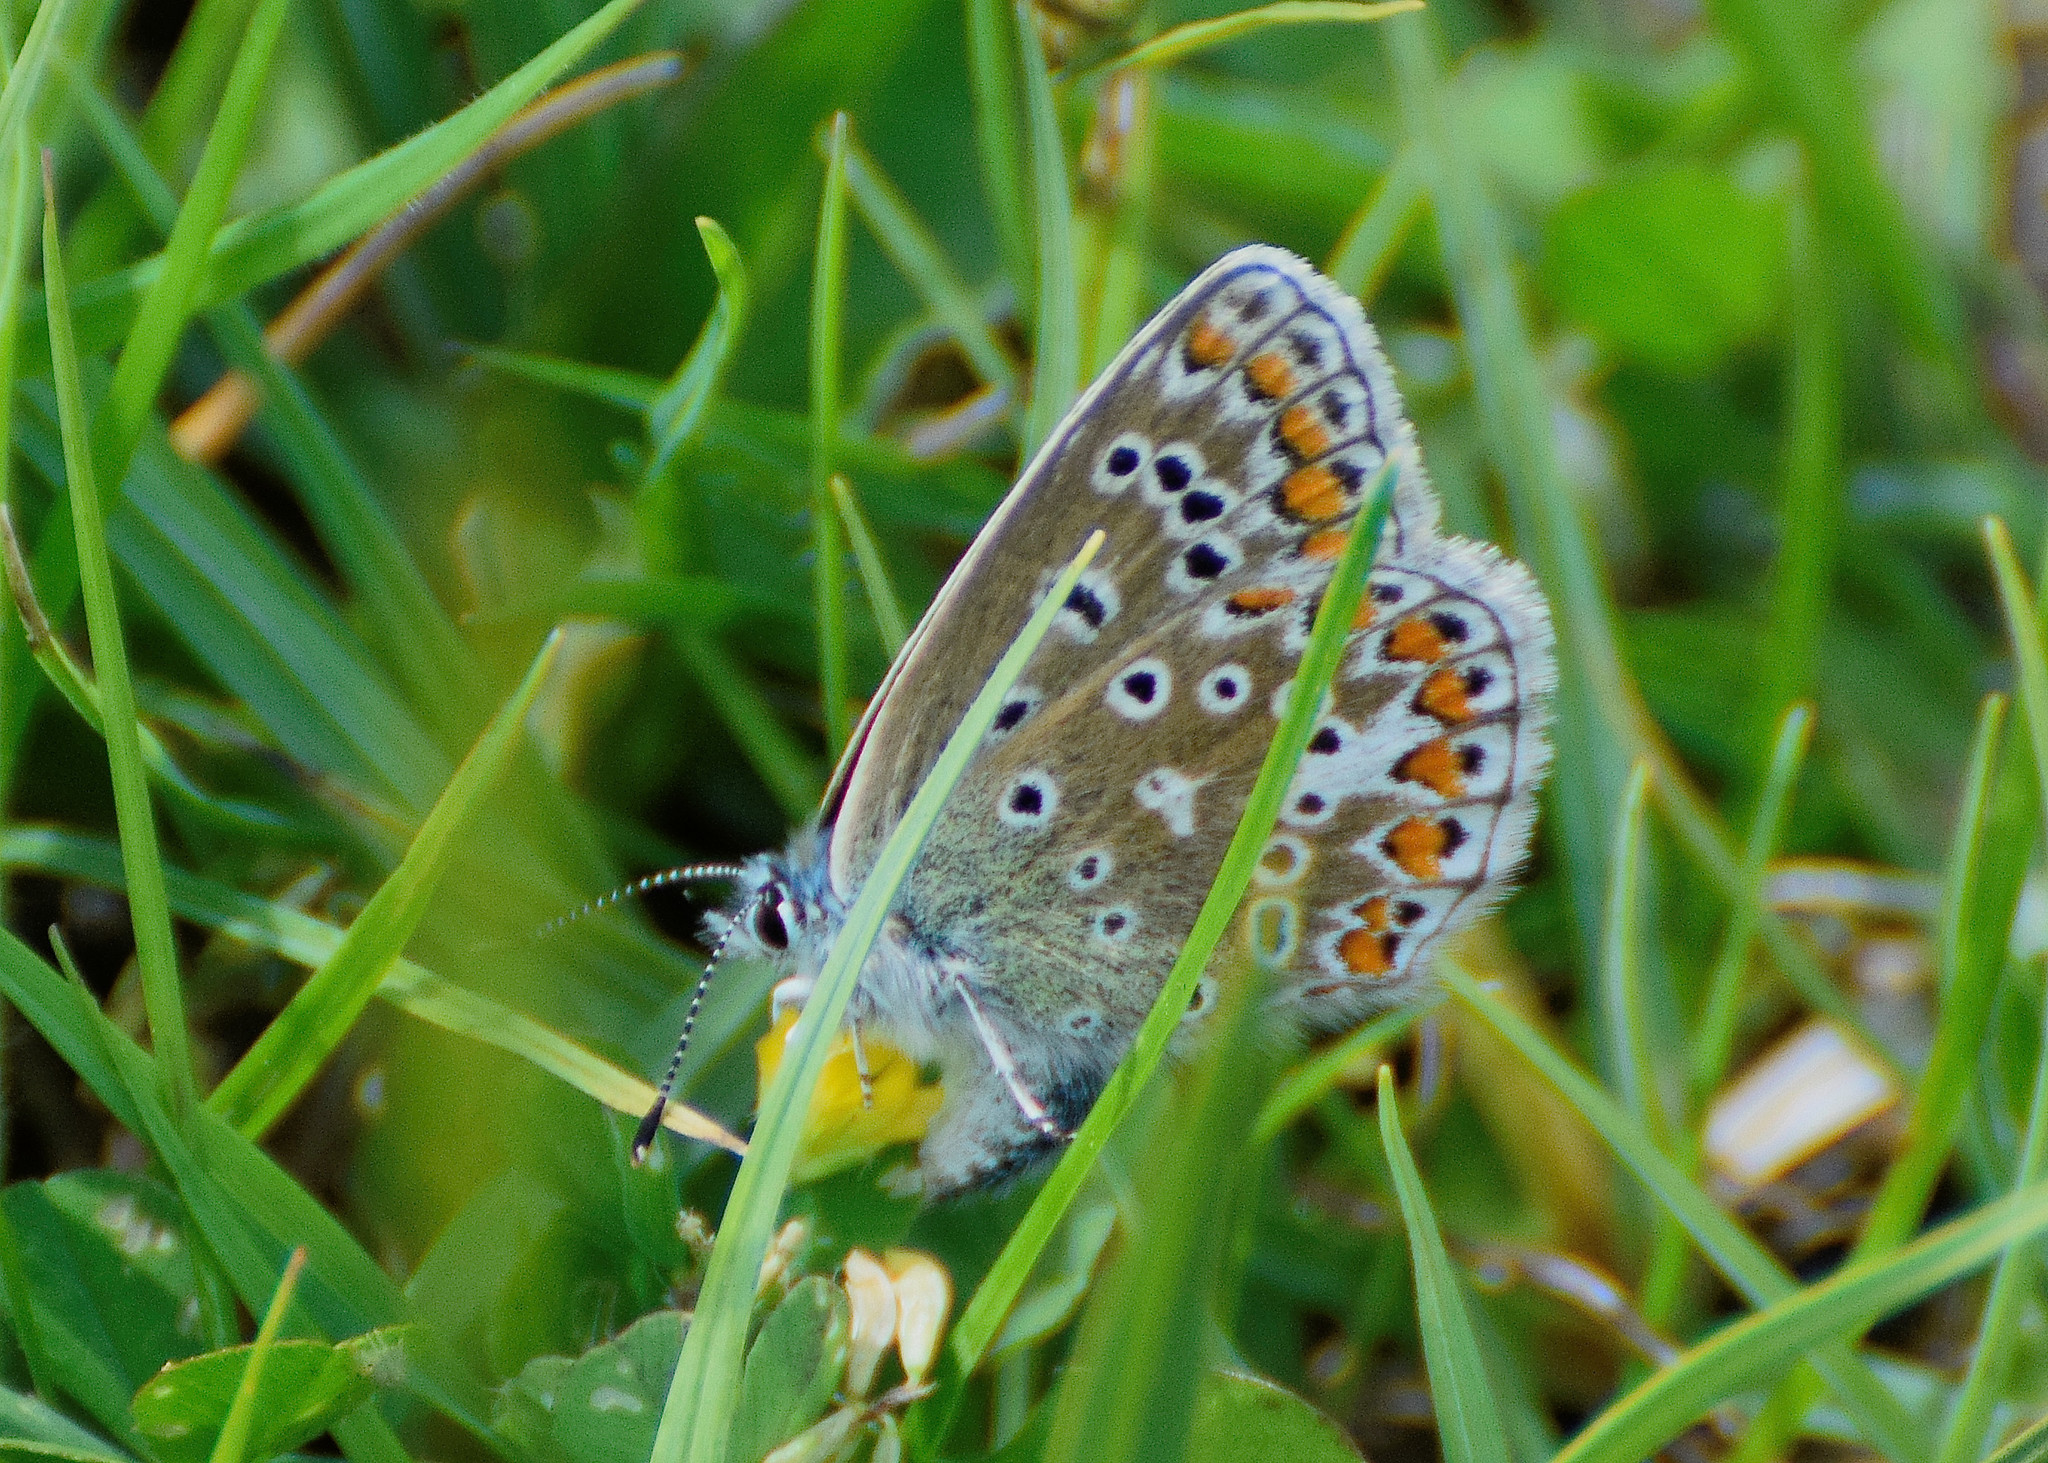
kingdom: Animalia
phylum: Arthropoda
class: Insecta
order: Lepidoptera
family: Lycaenidae
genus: Polyommatus
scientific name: Polyommatus icarus
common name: Common blue
